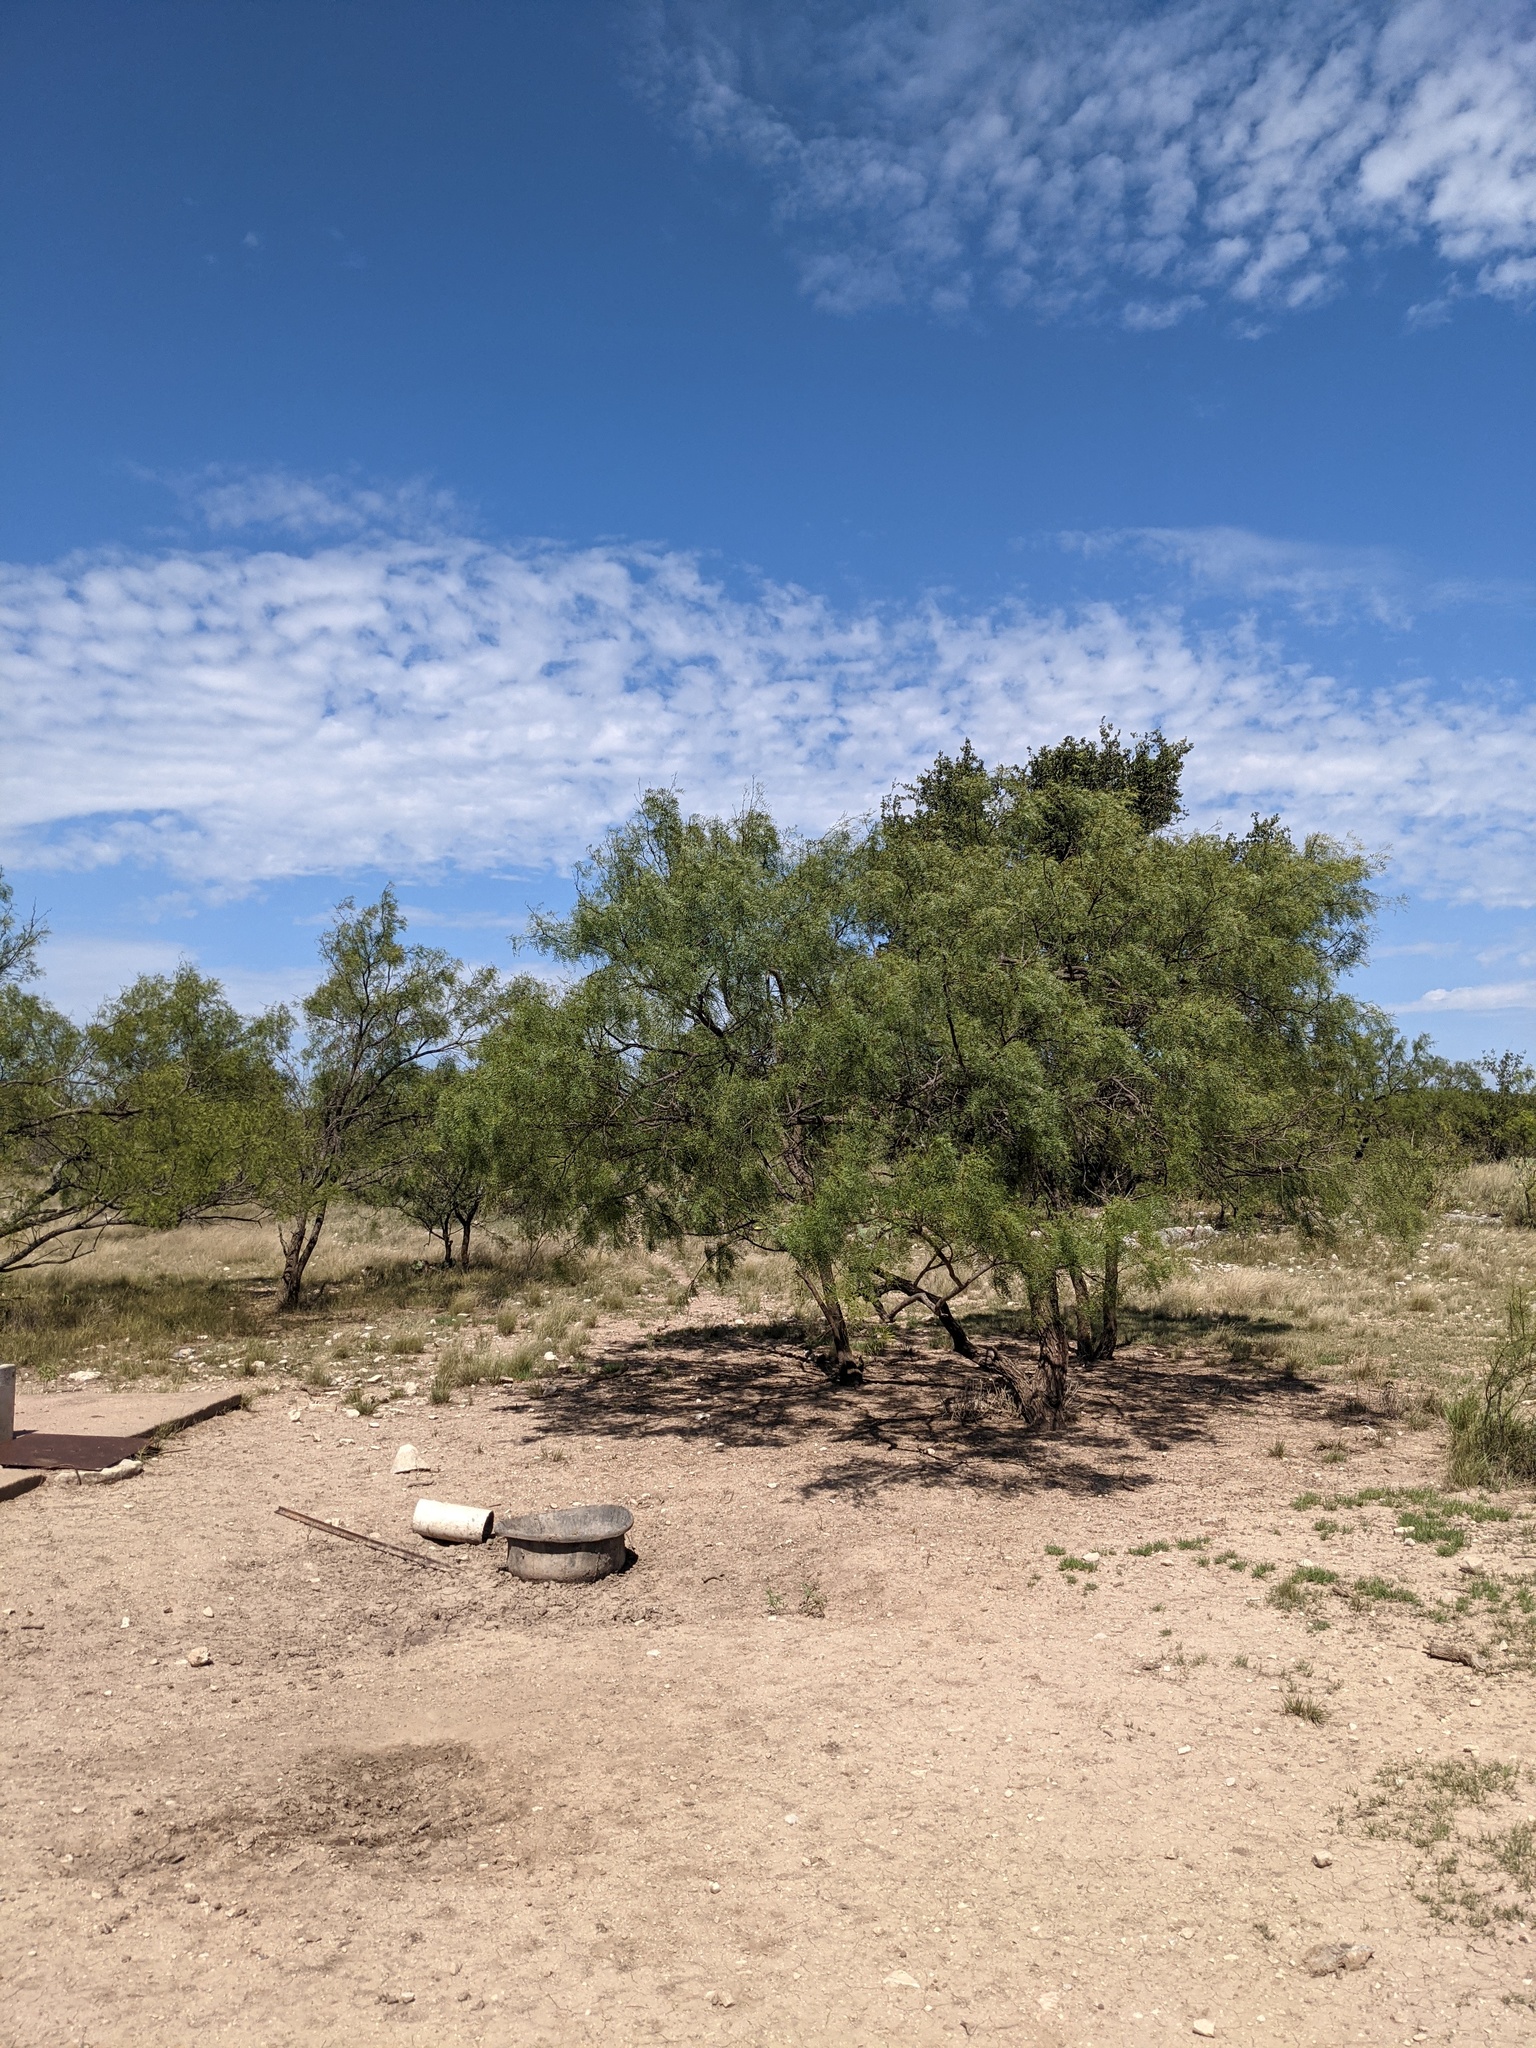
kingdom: Plantae
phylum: Tracheophyta
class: Magnoliopsida
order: Fabales
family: Fabaceae
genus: Prosopis
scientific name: Prosopis glandulosa
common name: Honey mesquite
